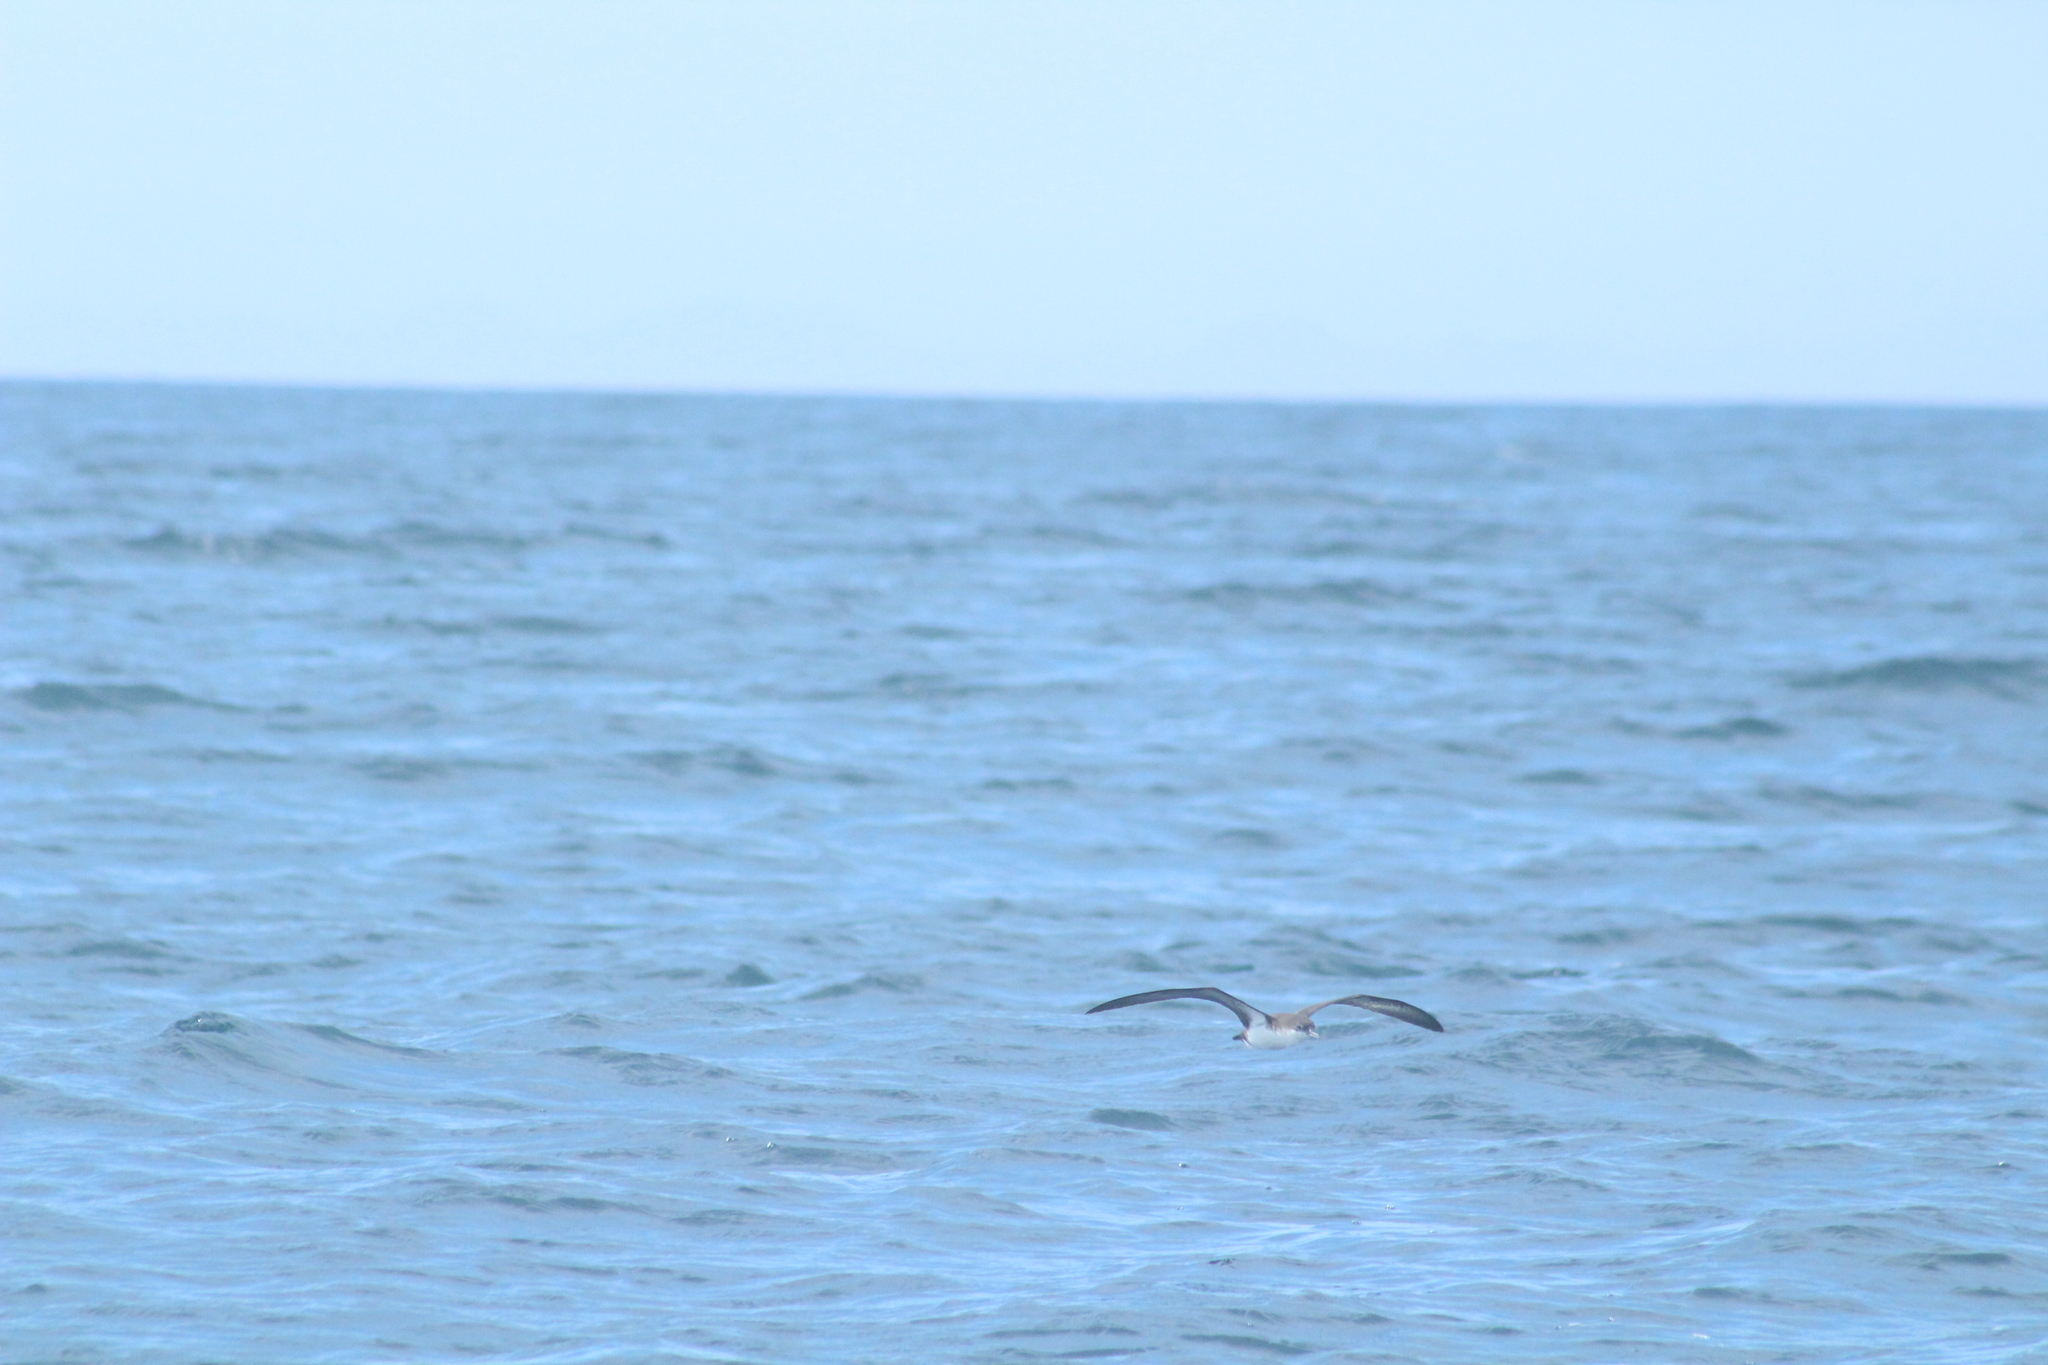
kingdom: Animalia
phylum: Chordata
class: Aves
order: Procellariiformes
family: Procellariidae
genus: Puffinus
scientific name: Puffinus subalaris
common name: Galapagos shearwater
